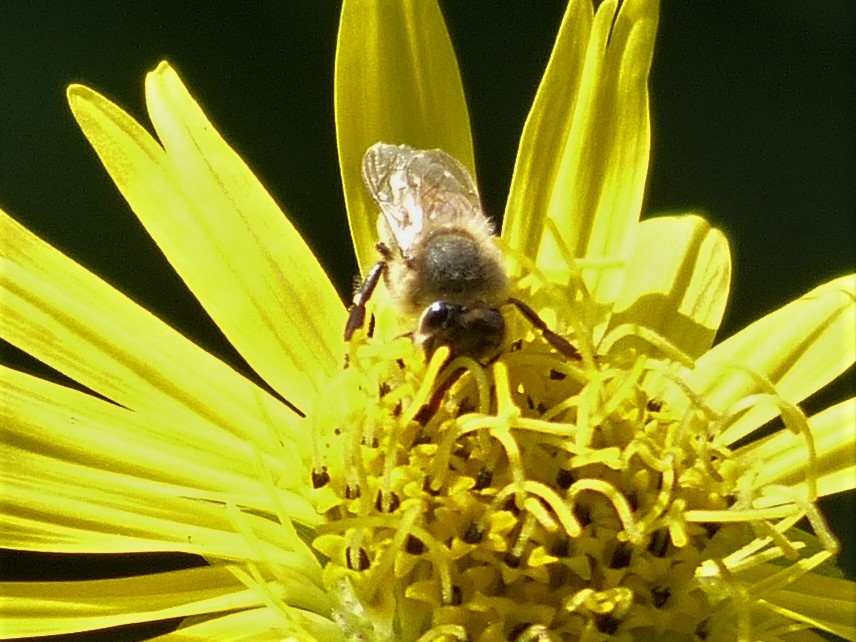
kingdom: Animalia
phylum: Arthropoda
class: Insecta
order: Hymenoptera
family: Apidae
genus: Apis
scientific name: Apis mellifera
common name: Honey bee
